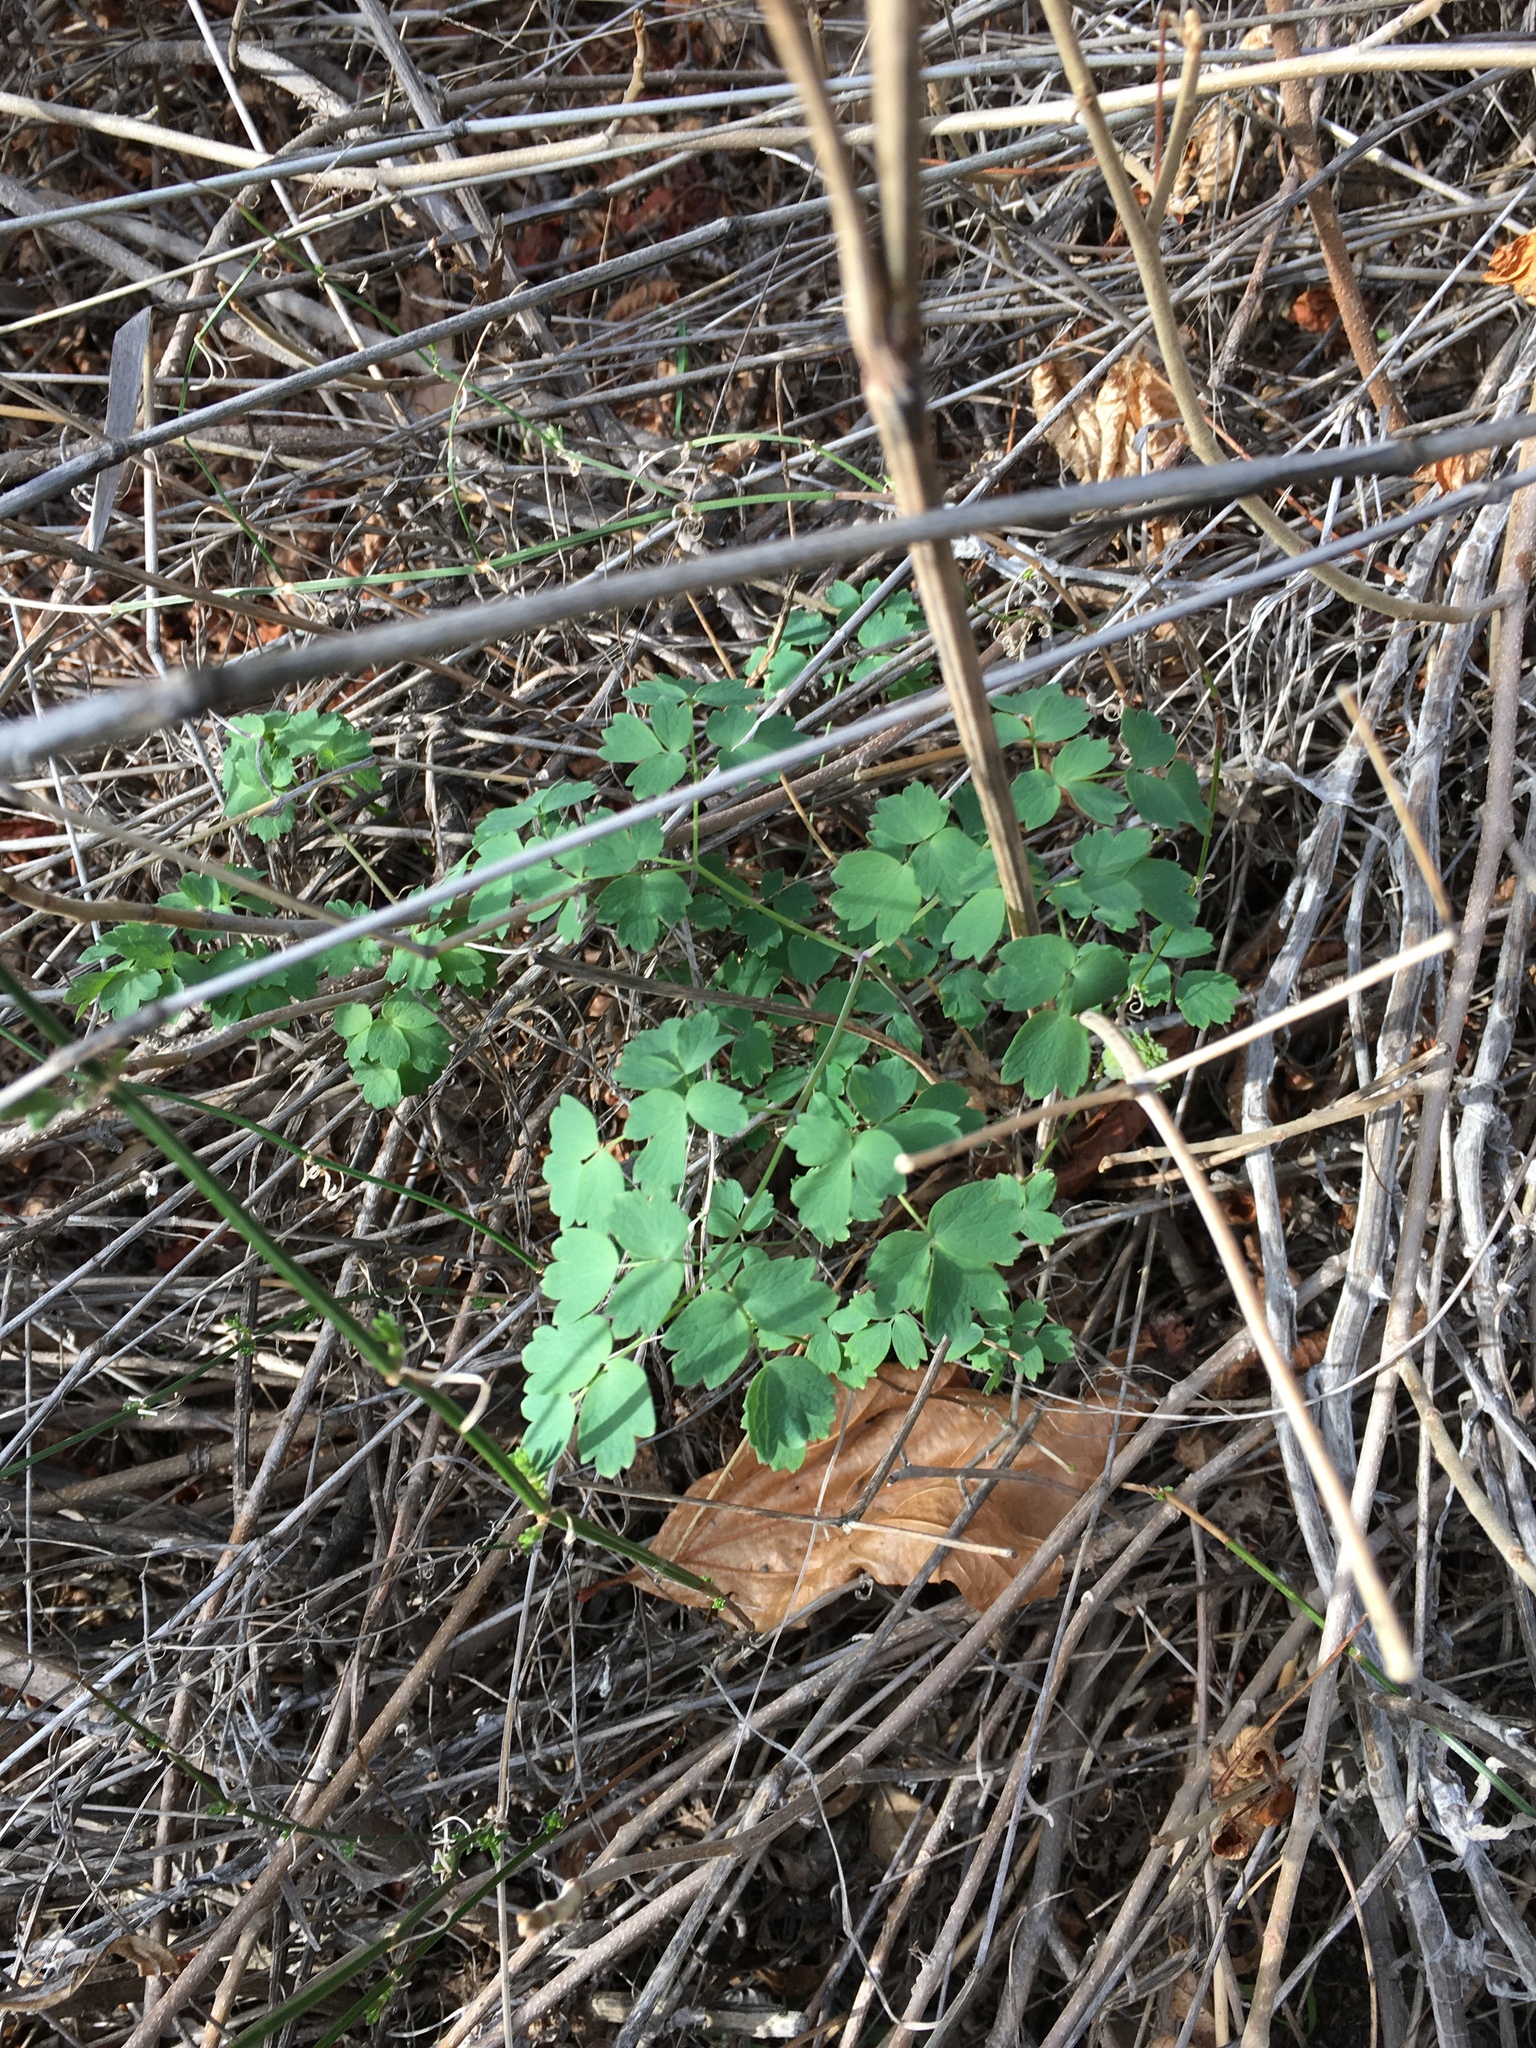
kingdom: Plantae
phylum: Tracheophyta
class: Magnoliopsida
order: Ranunculales
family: Ranunculaceae
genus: Thalictrum
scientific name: Thalictrum fendleri
